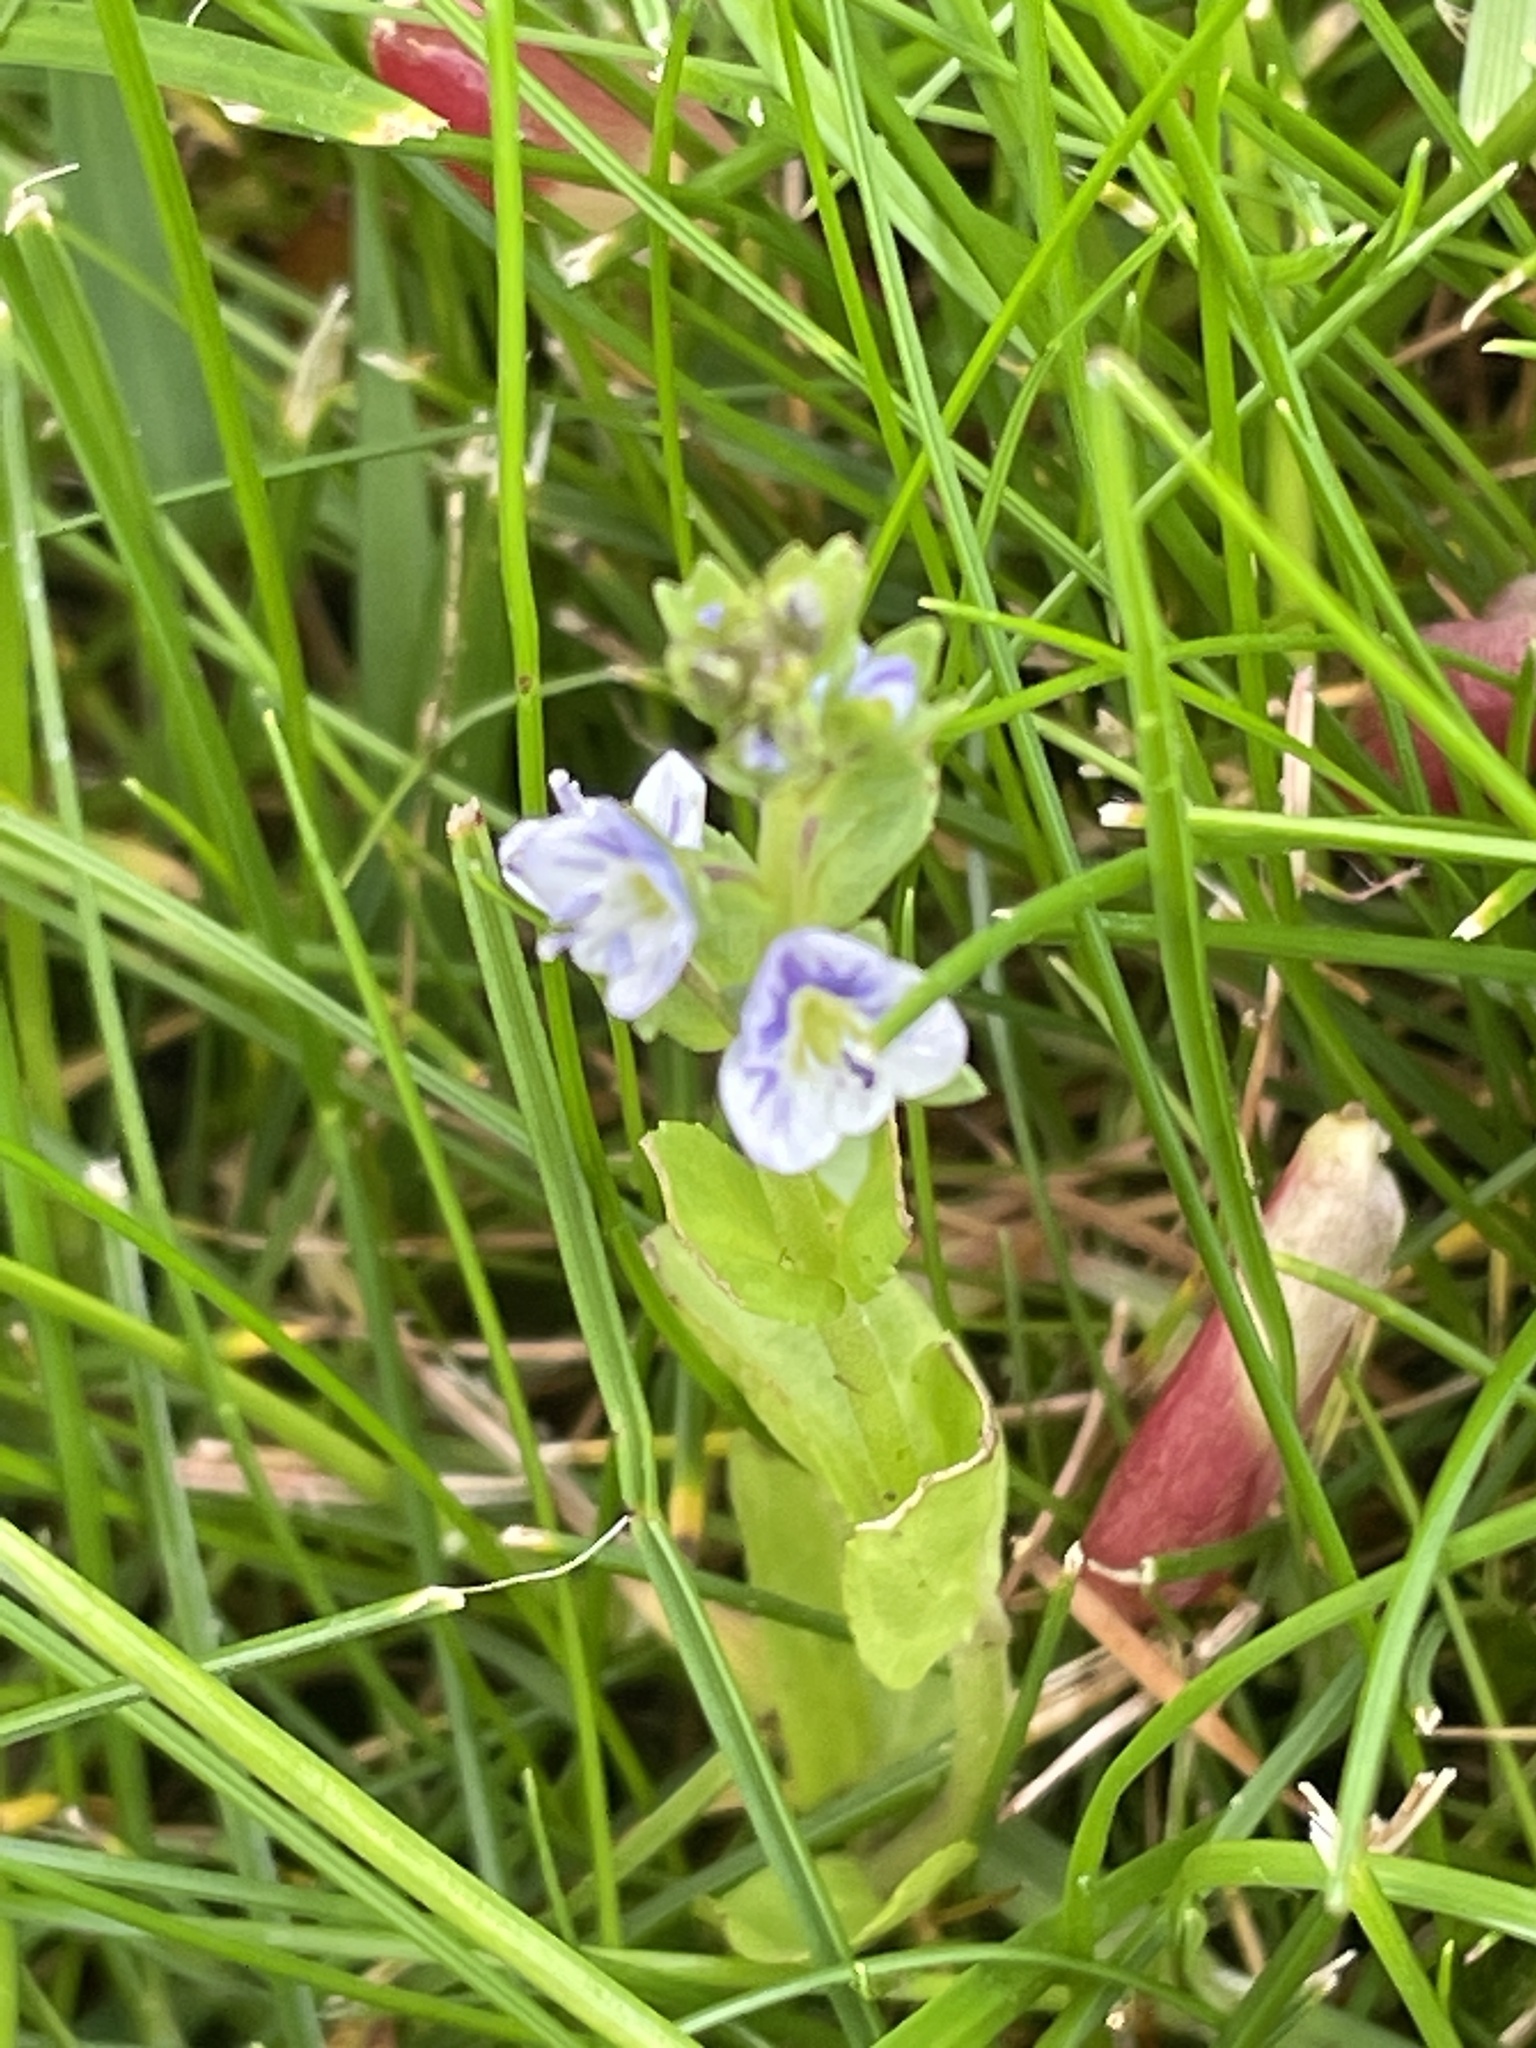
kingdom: Plantae
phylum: Tracheophyta
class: Magnoliopsida
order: Lamiales
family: Plantaginaceae
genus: Veronica
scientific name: Veronica serpyllifolia
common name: Thyme-leaved speedwell
